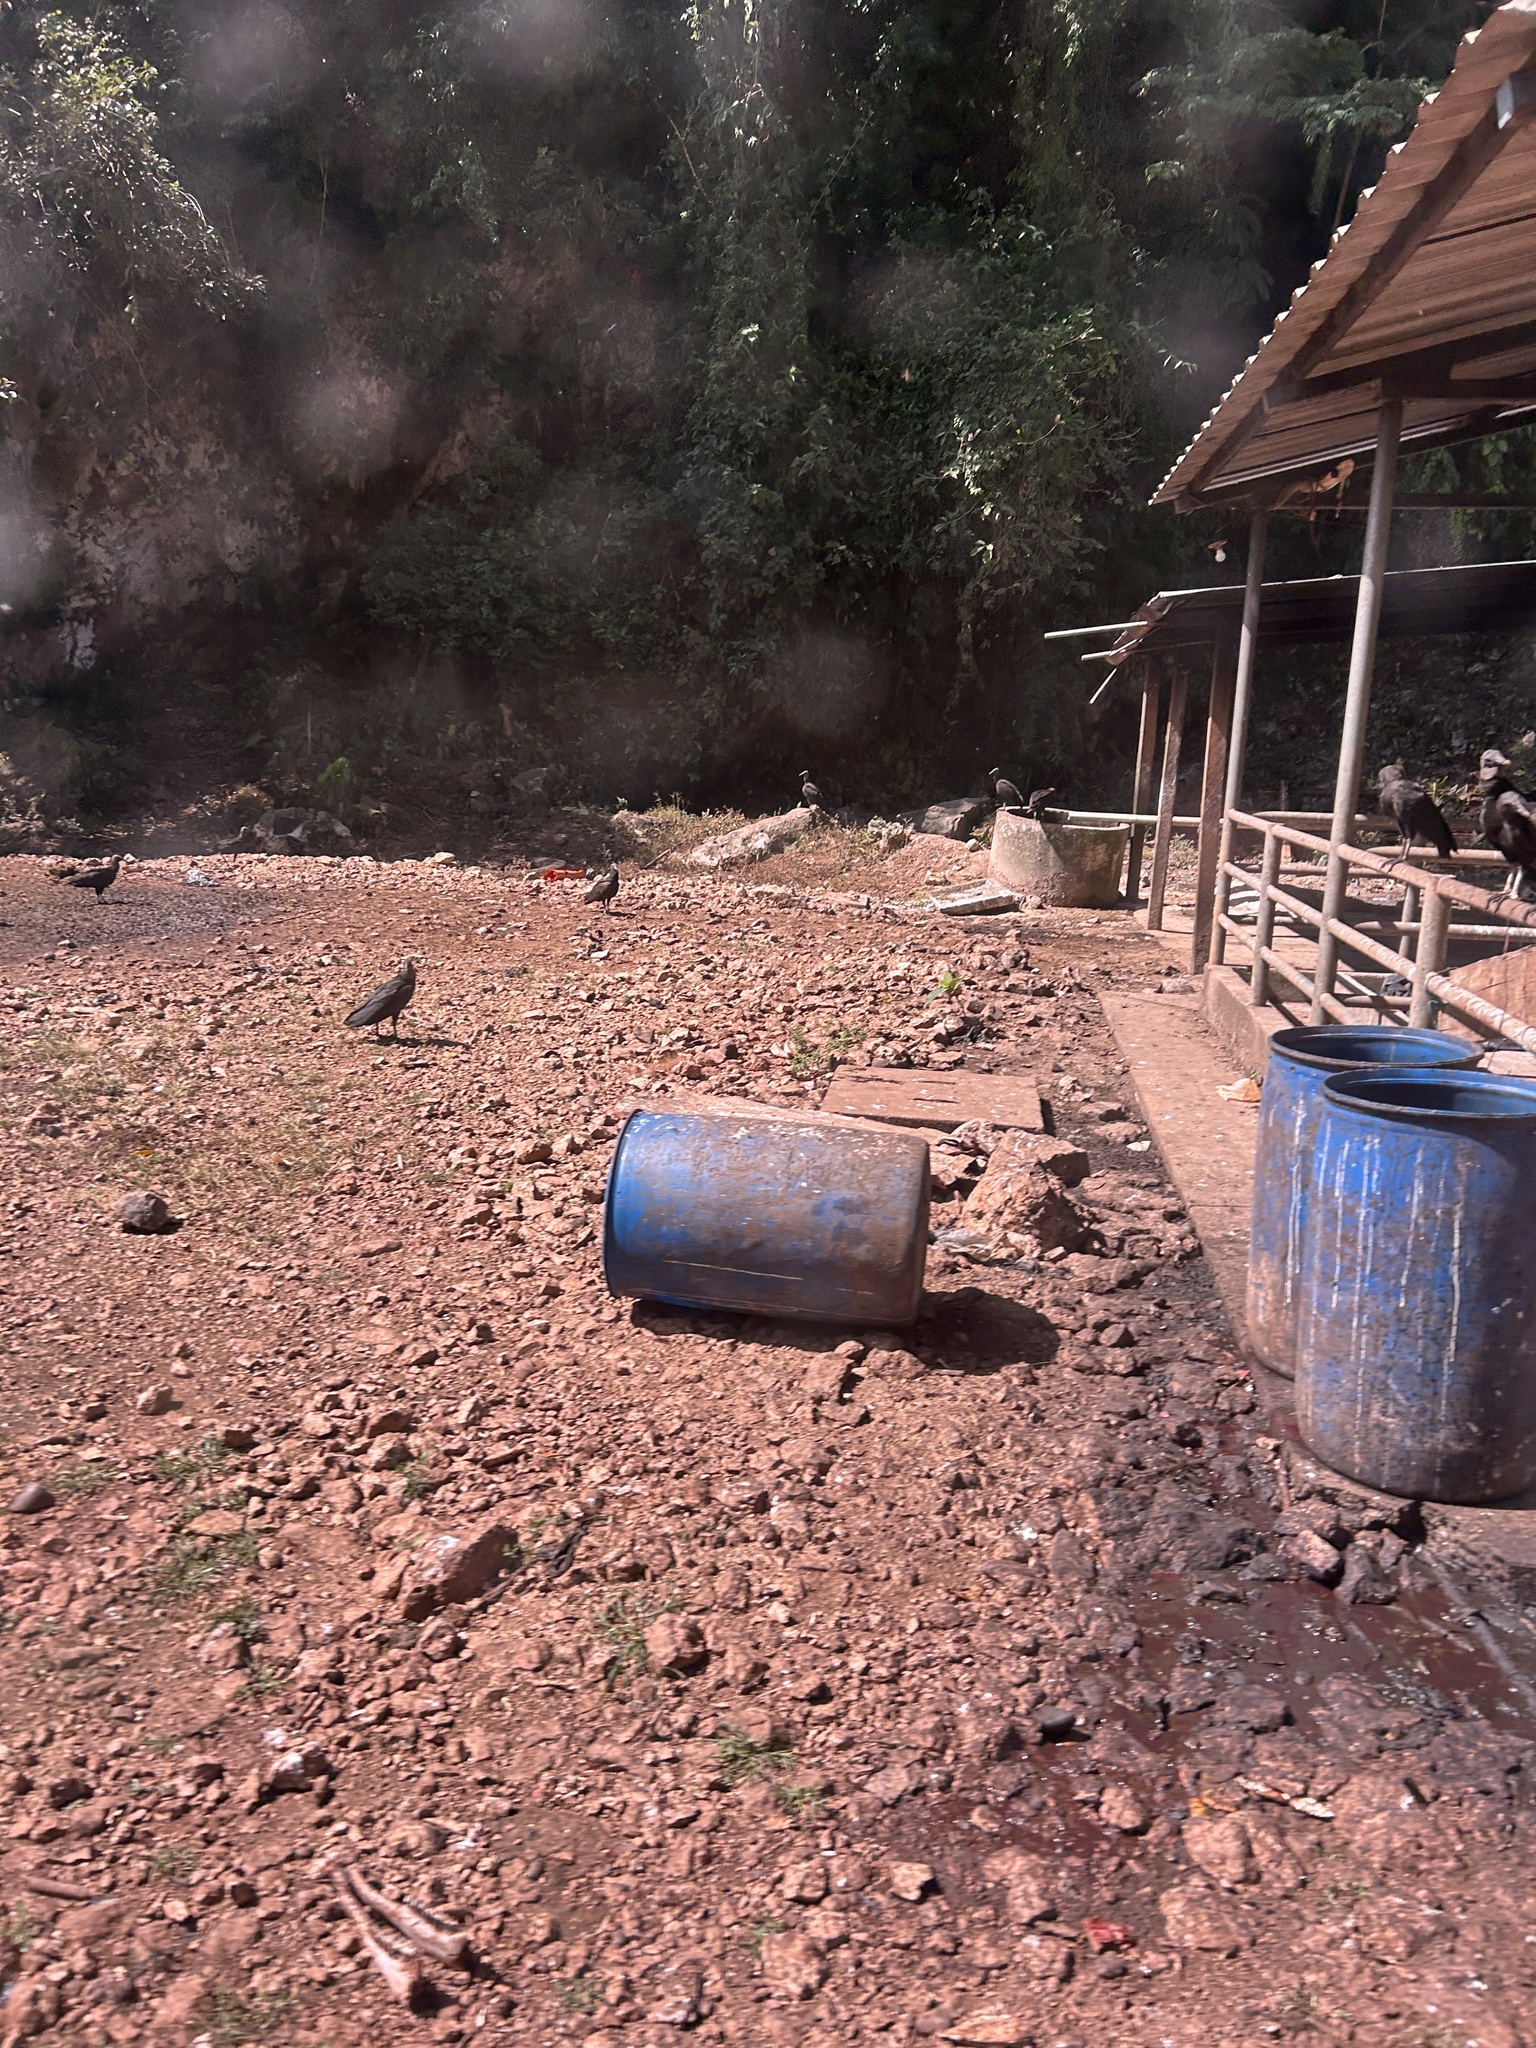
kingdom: Animalia
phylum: Chordata
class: Aves
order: Accipitriformes
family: Cathartidae
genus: Coragyps
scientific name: Coragyps atratus
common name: Black vulture
